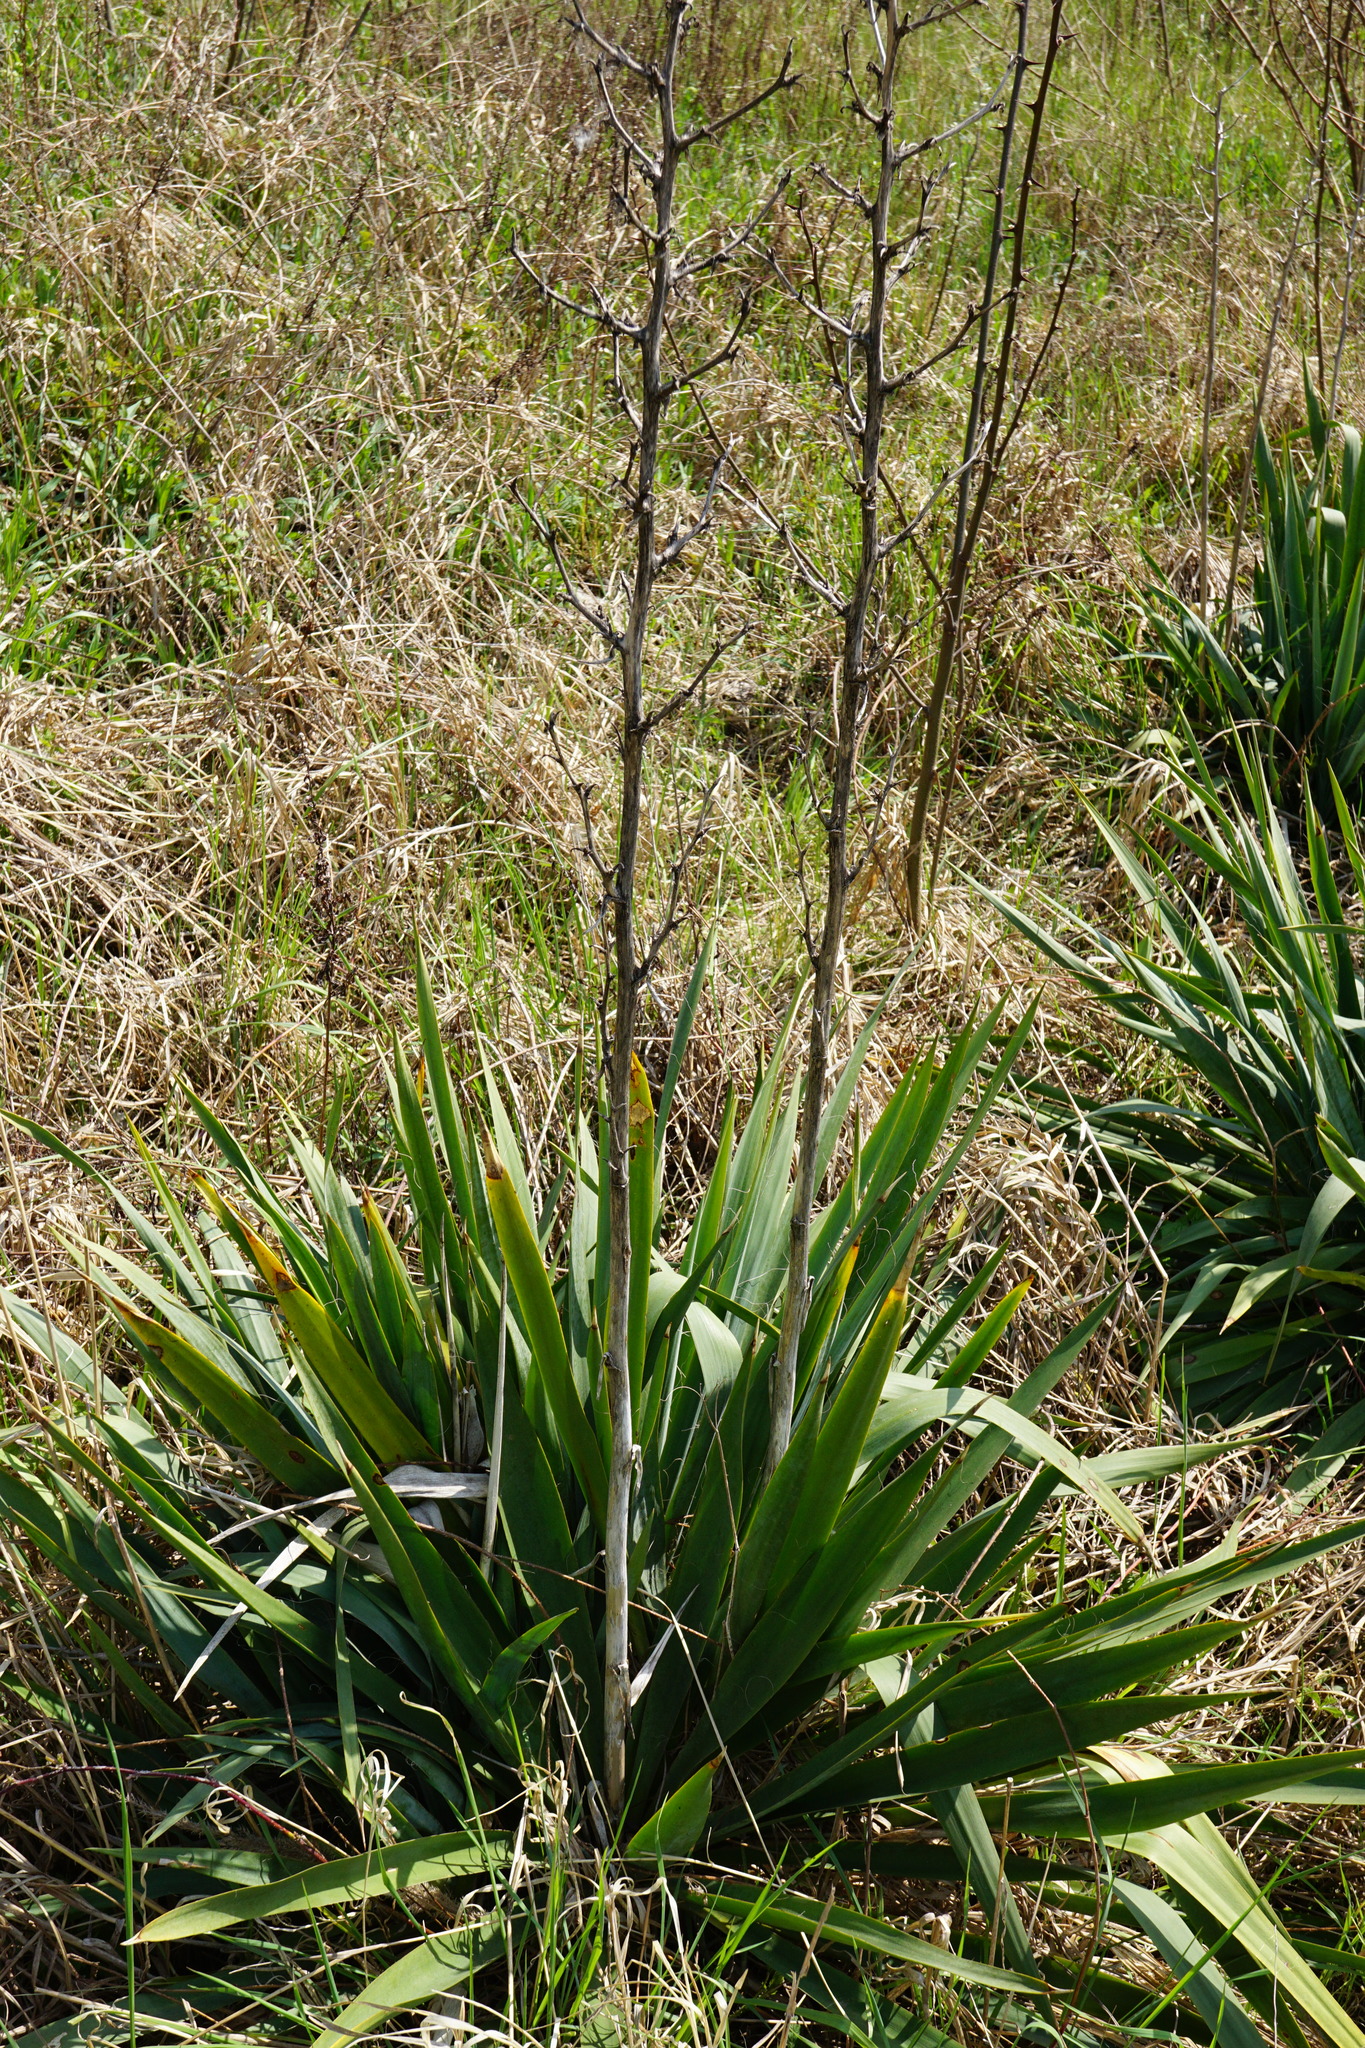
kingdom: Plantae
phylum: Tracheophyta
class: Liliopsida
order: Asparagales
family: Asparagaceae
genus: Yucca
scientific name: Yucca filamentosa
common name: Adam's-needle
